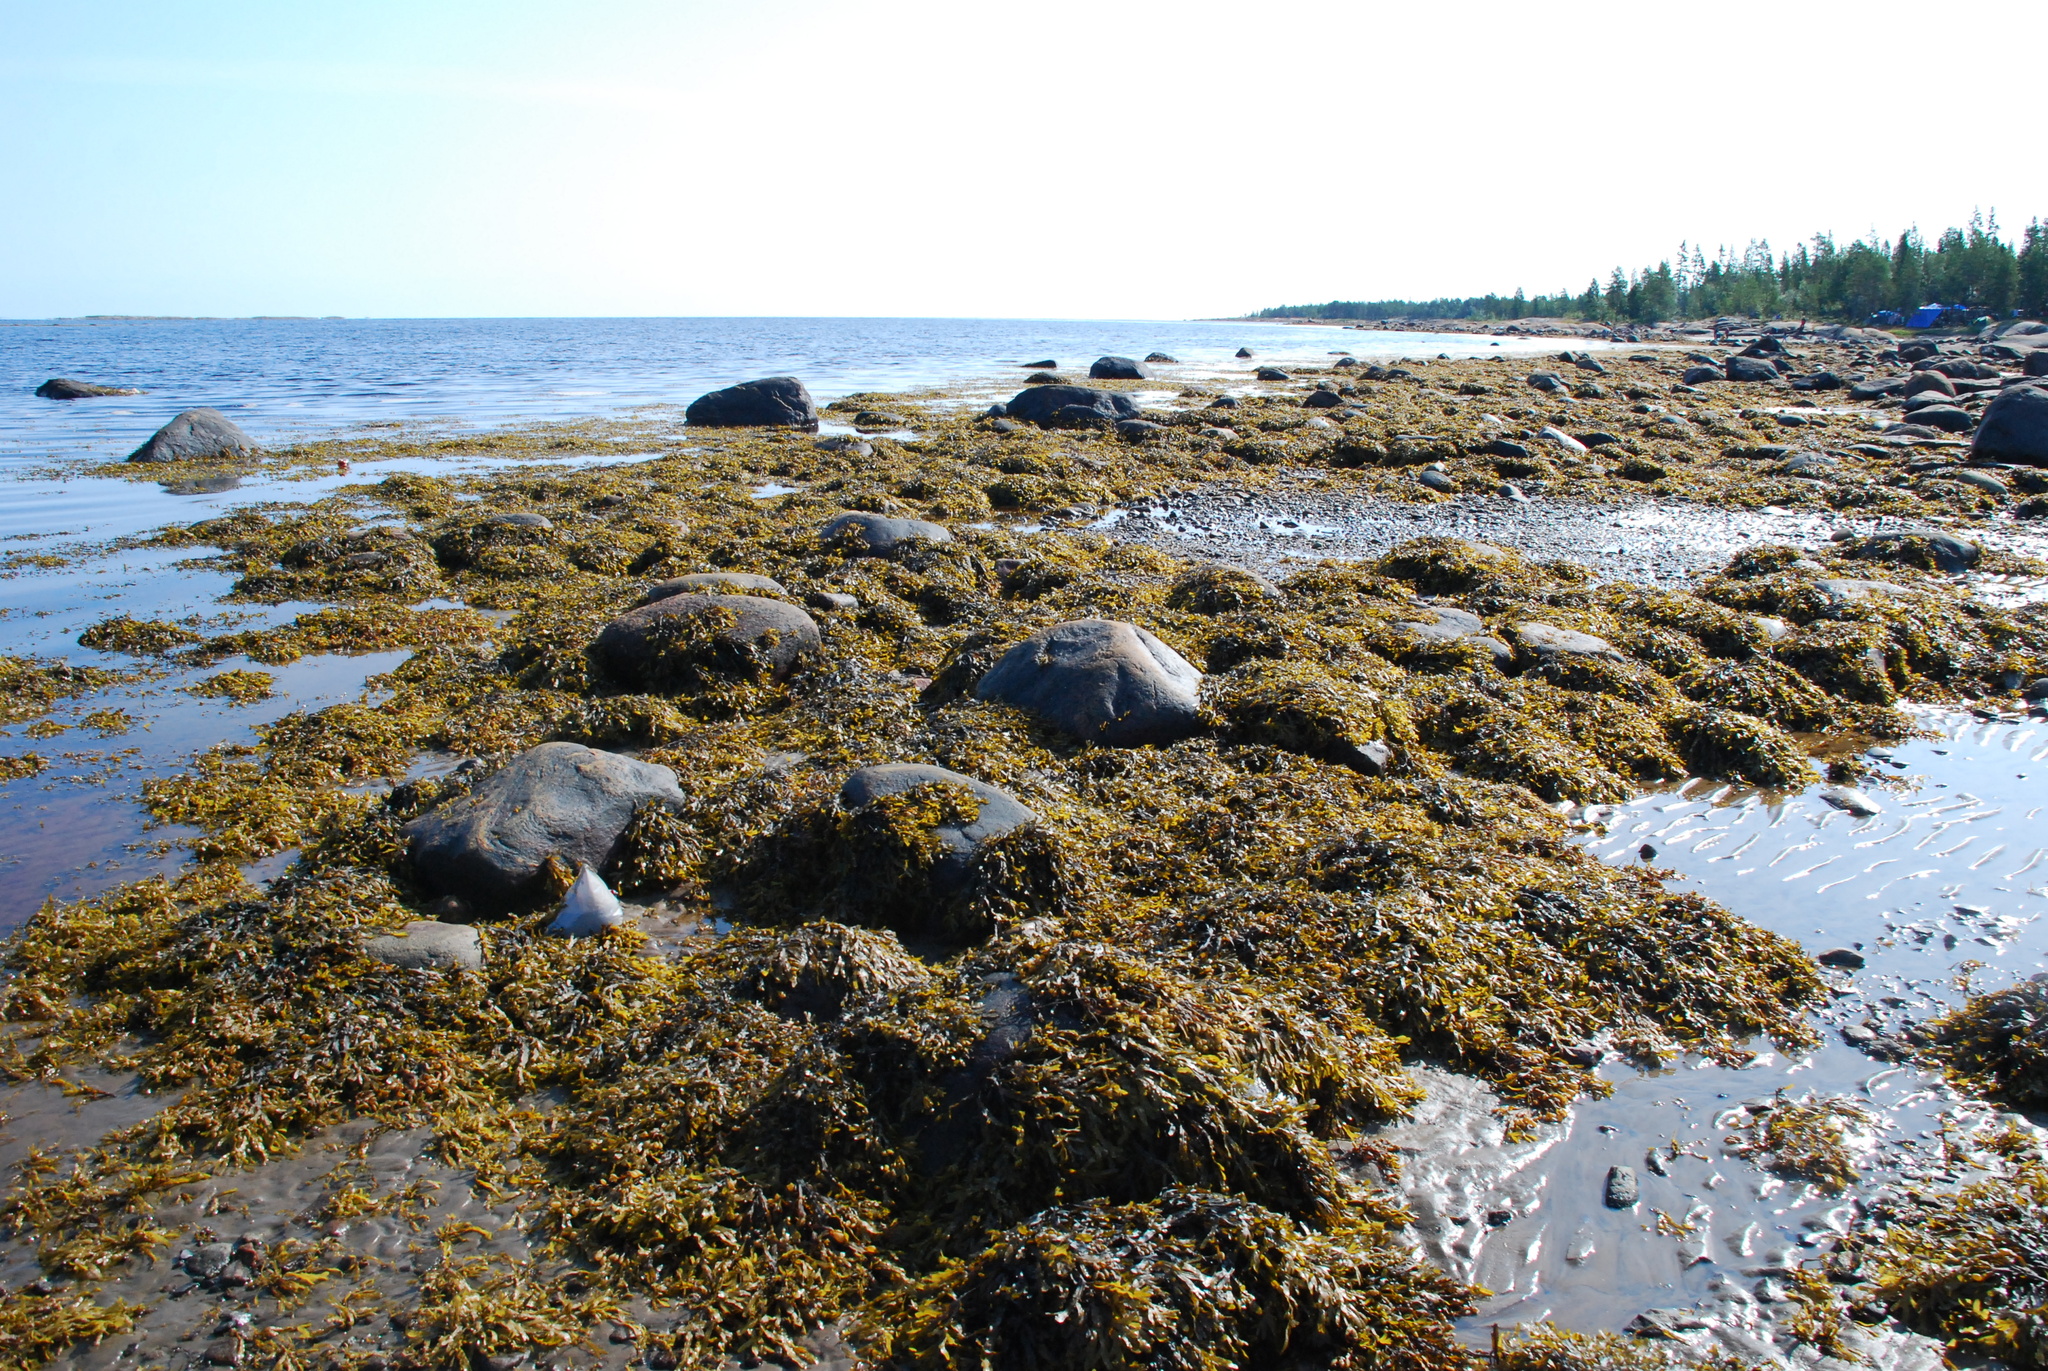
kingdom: Chromista
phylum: Ochrophyta
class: Phaeophyceae
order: Fucales
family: Fucaceae
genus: Fucus
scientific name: Fucus vesiculosus
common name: Bladder wrack
